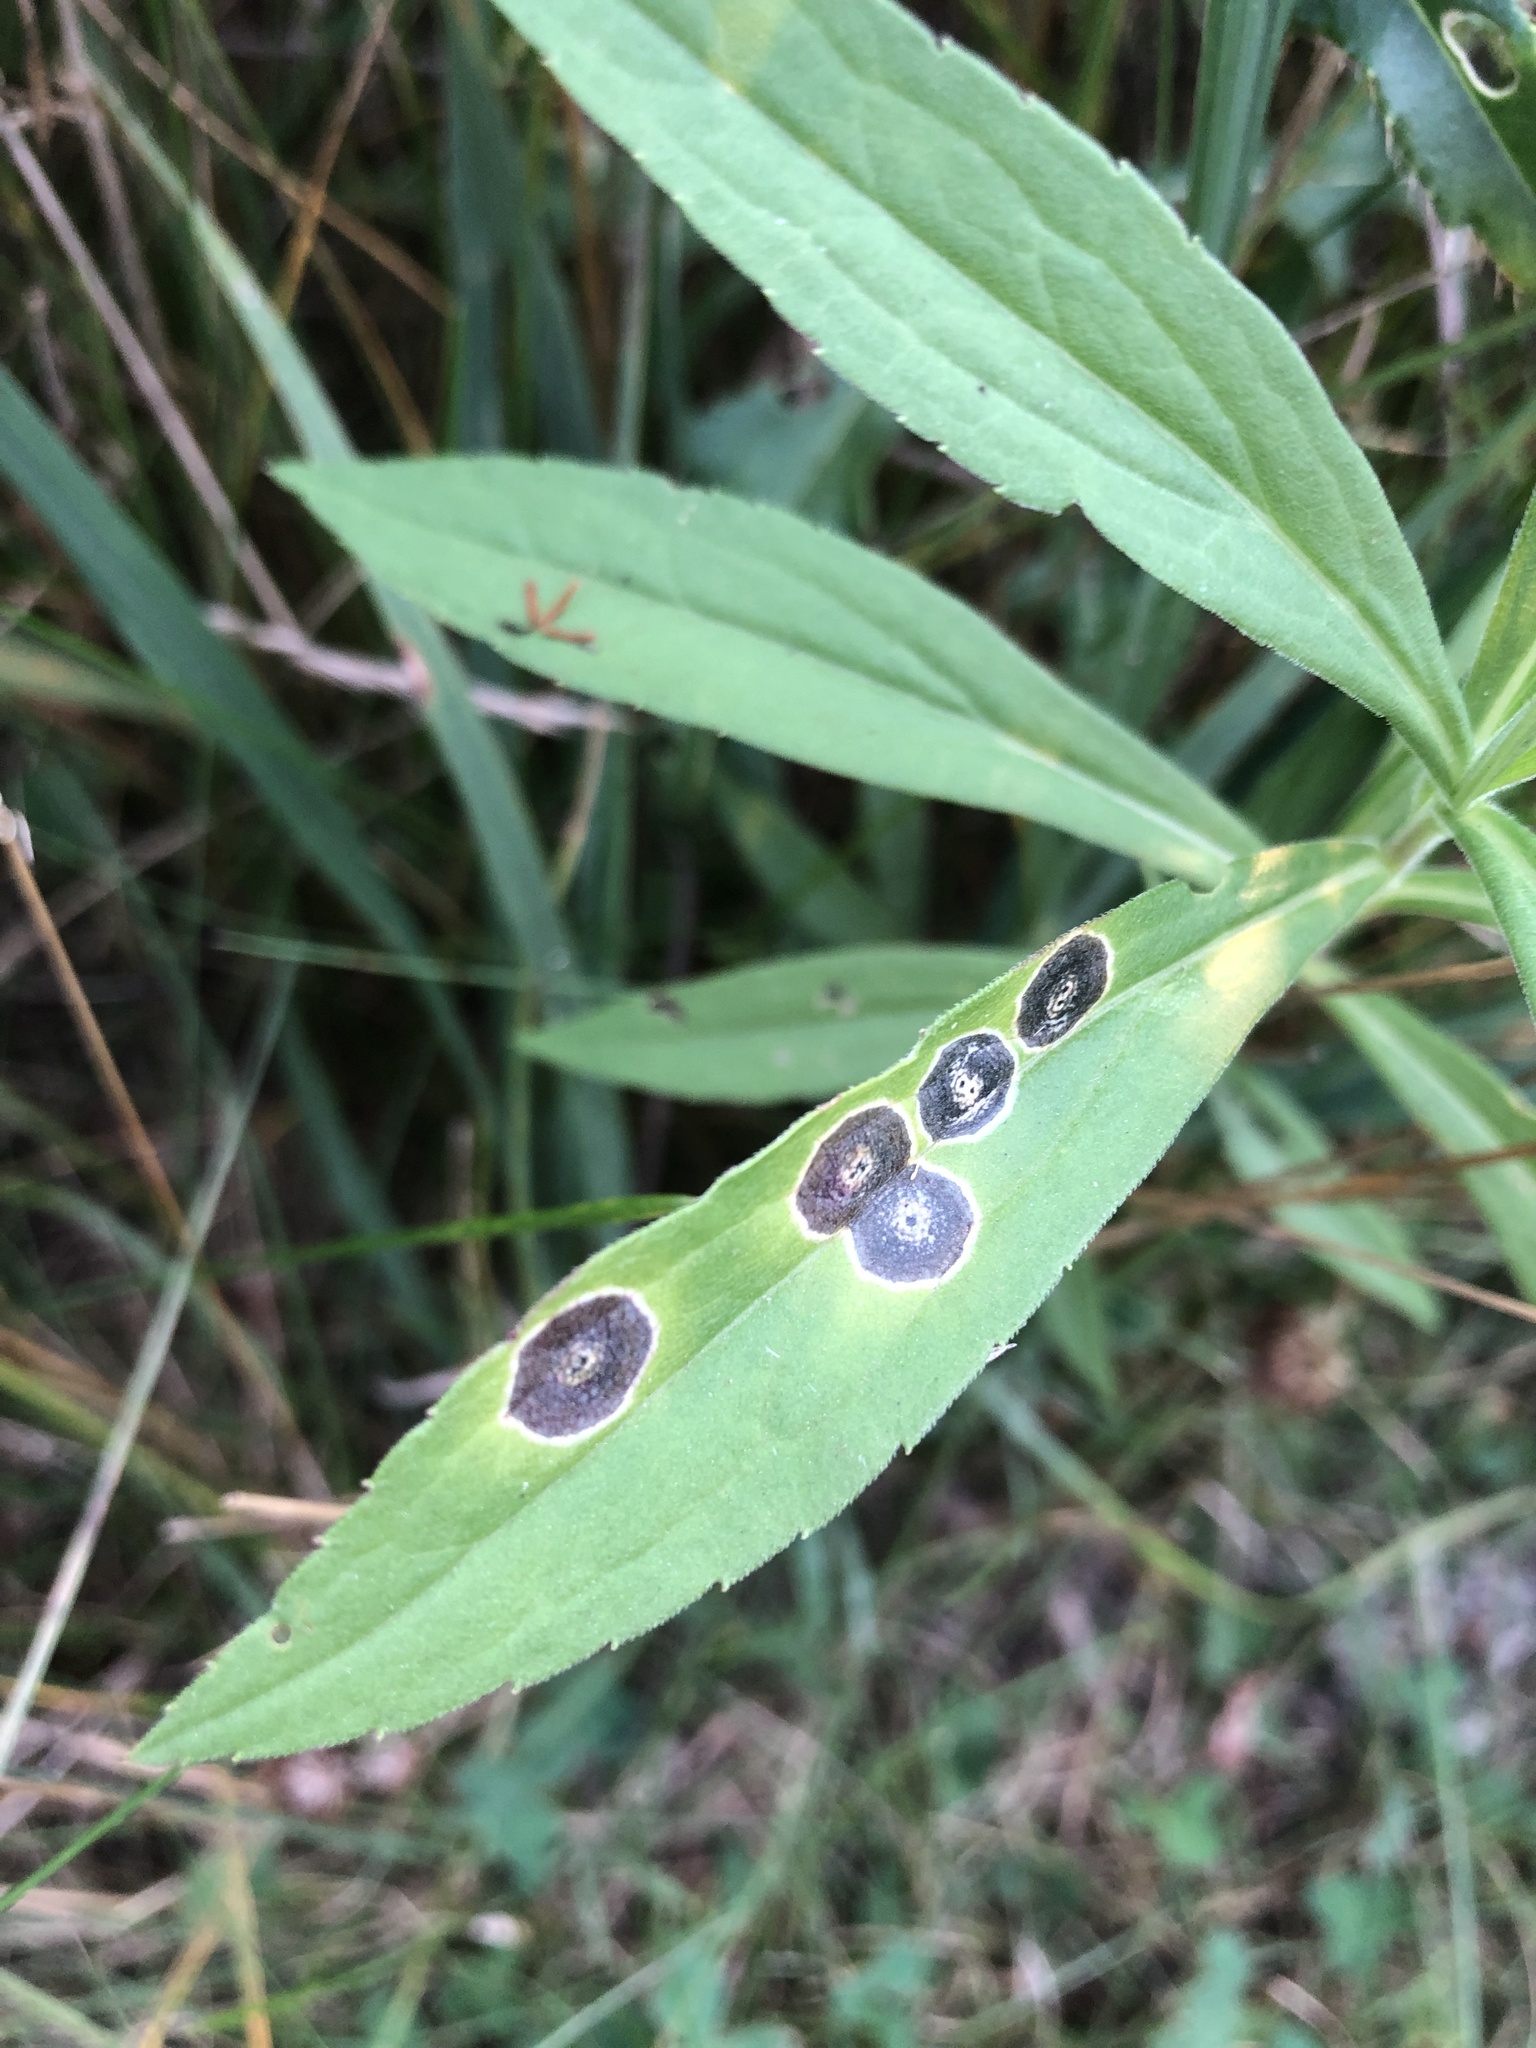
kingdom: Animalia
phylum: Arthropoda
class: Insecta
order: Diptera
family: Cecidomyiidae
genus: Asteromyia
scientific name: Asteromyia carbonifera
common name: Carbonifera goldenrod gall midge
